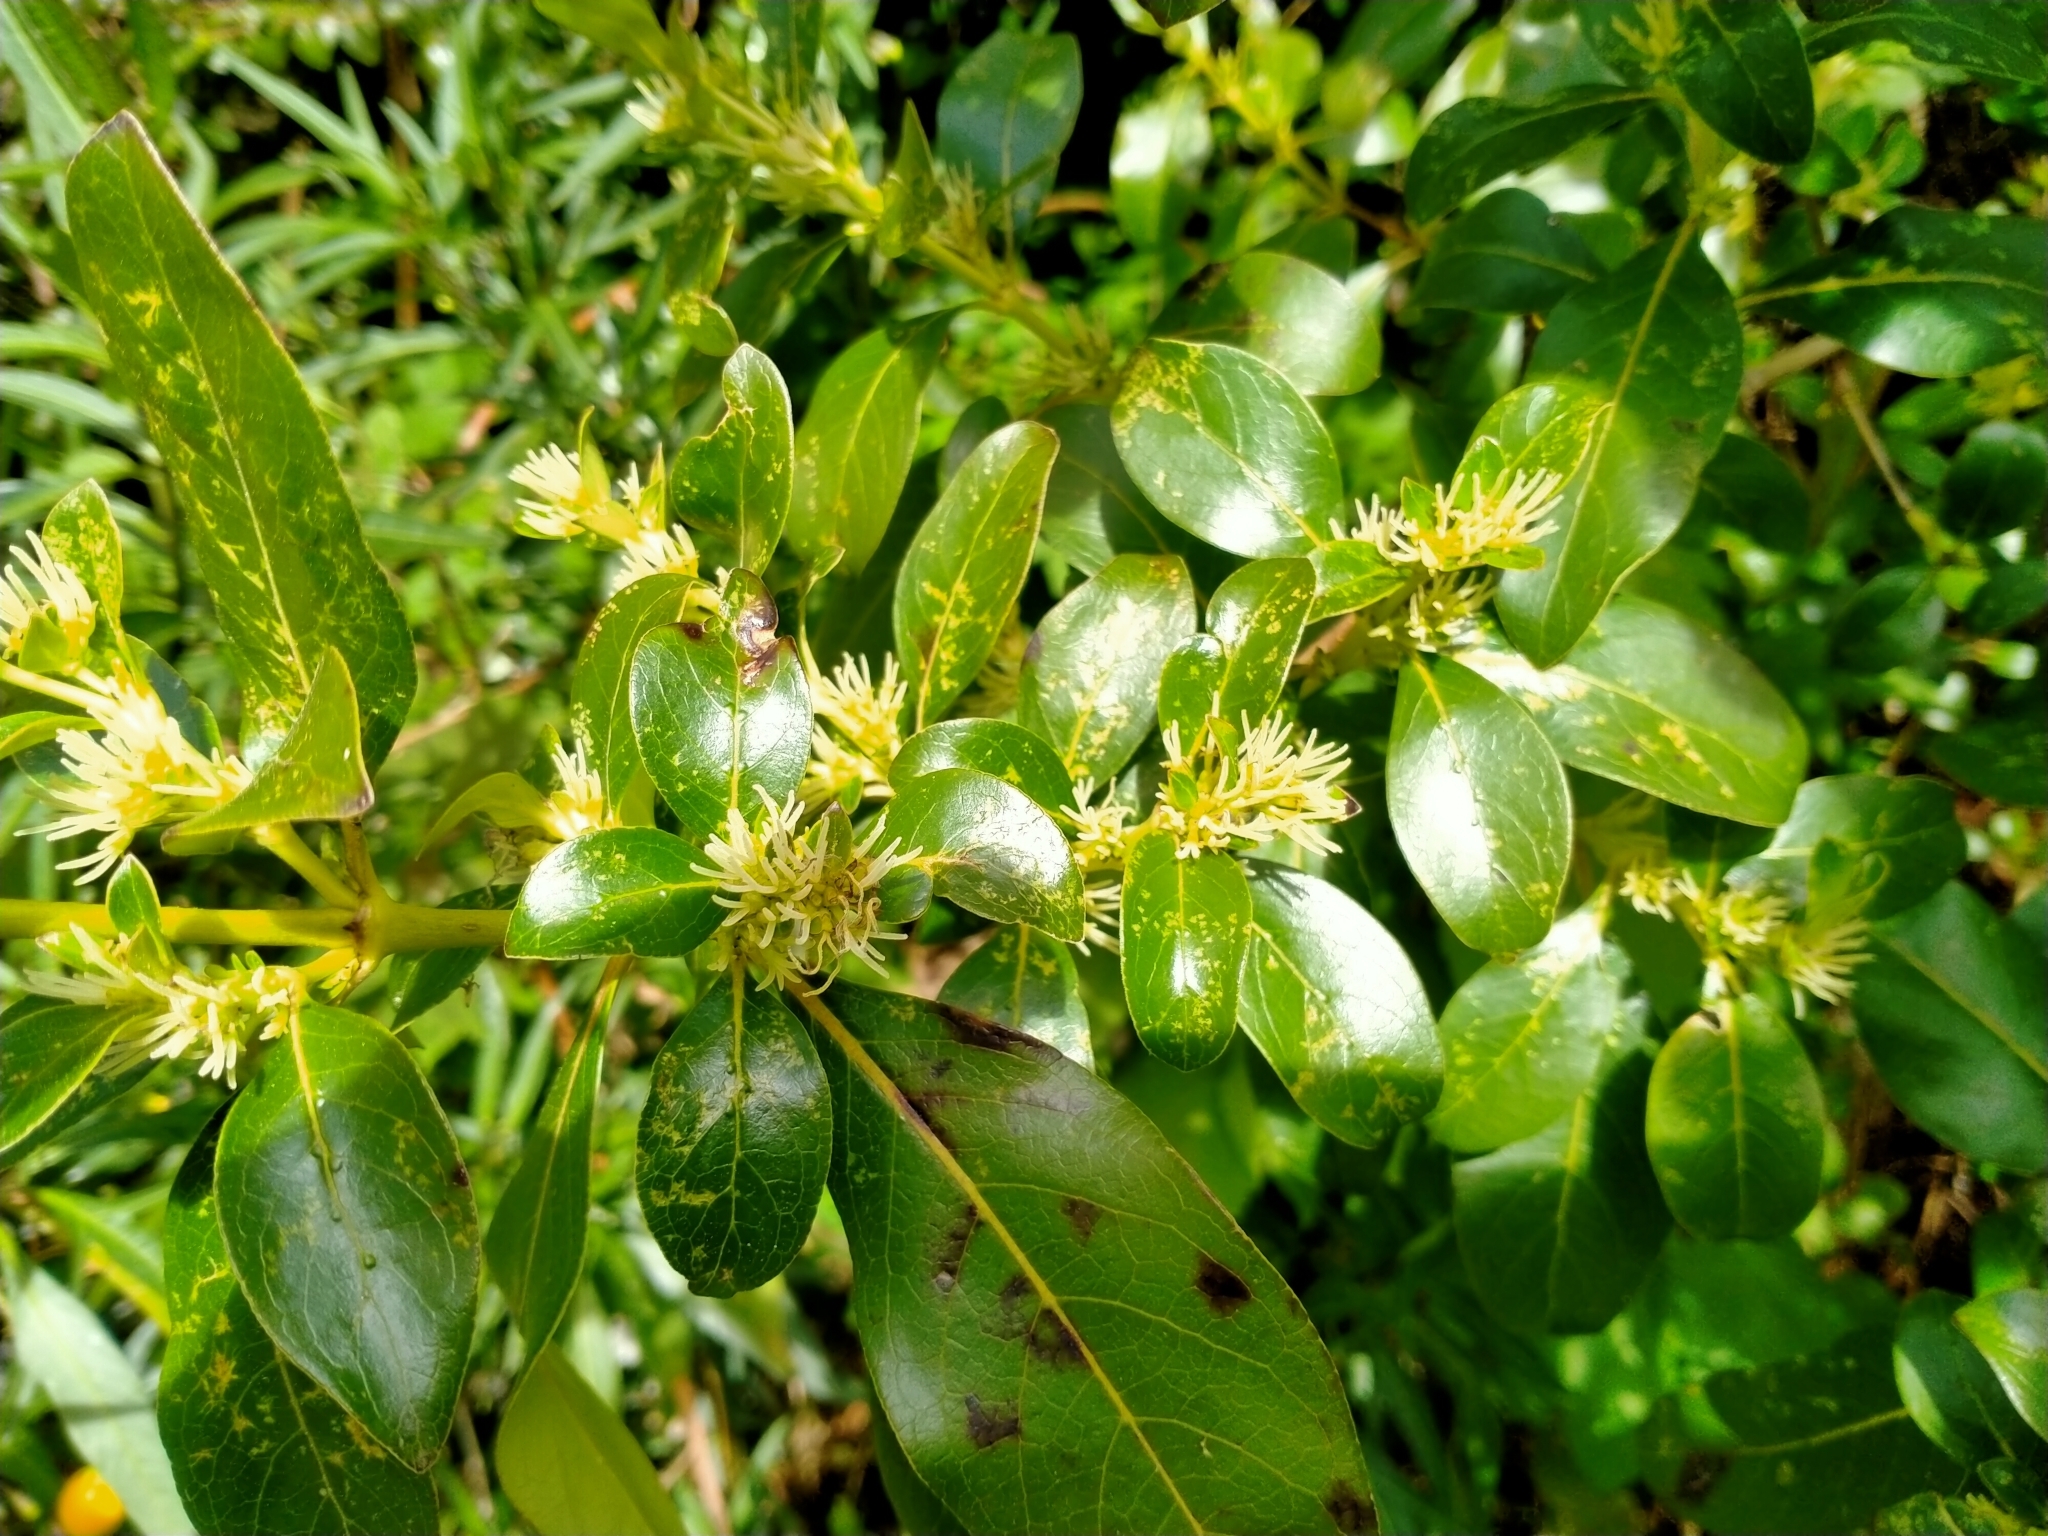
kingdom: Plantae
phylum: Tracheophyta
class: Magnoliopsida
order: Gentianales
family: Rubiaceae
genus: Coprosma
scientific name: Coprosma robusta
